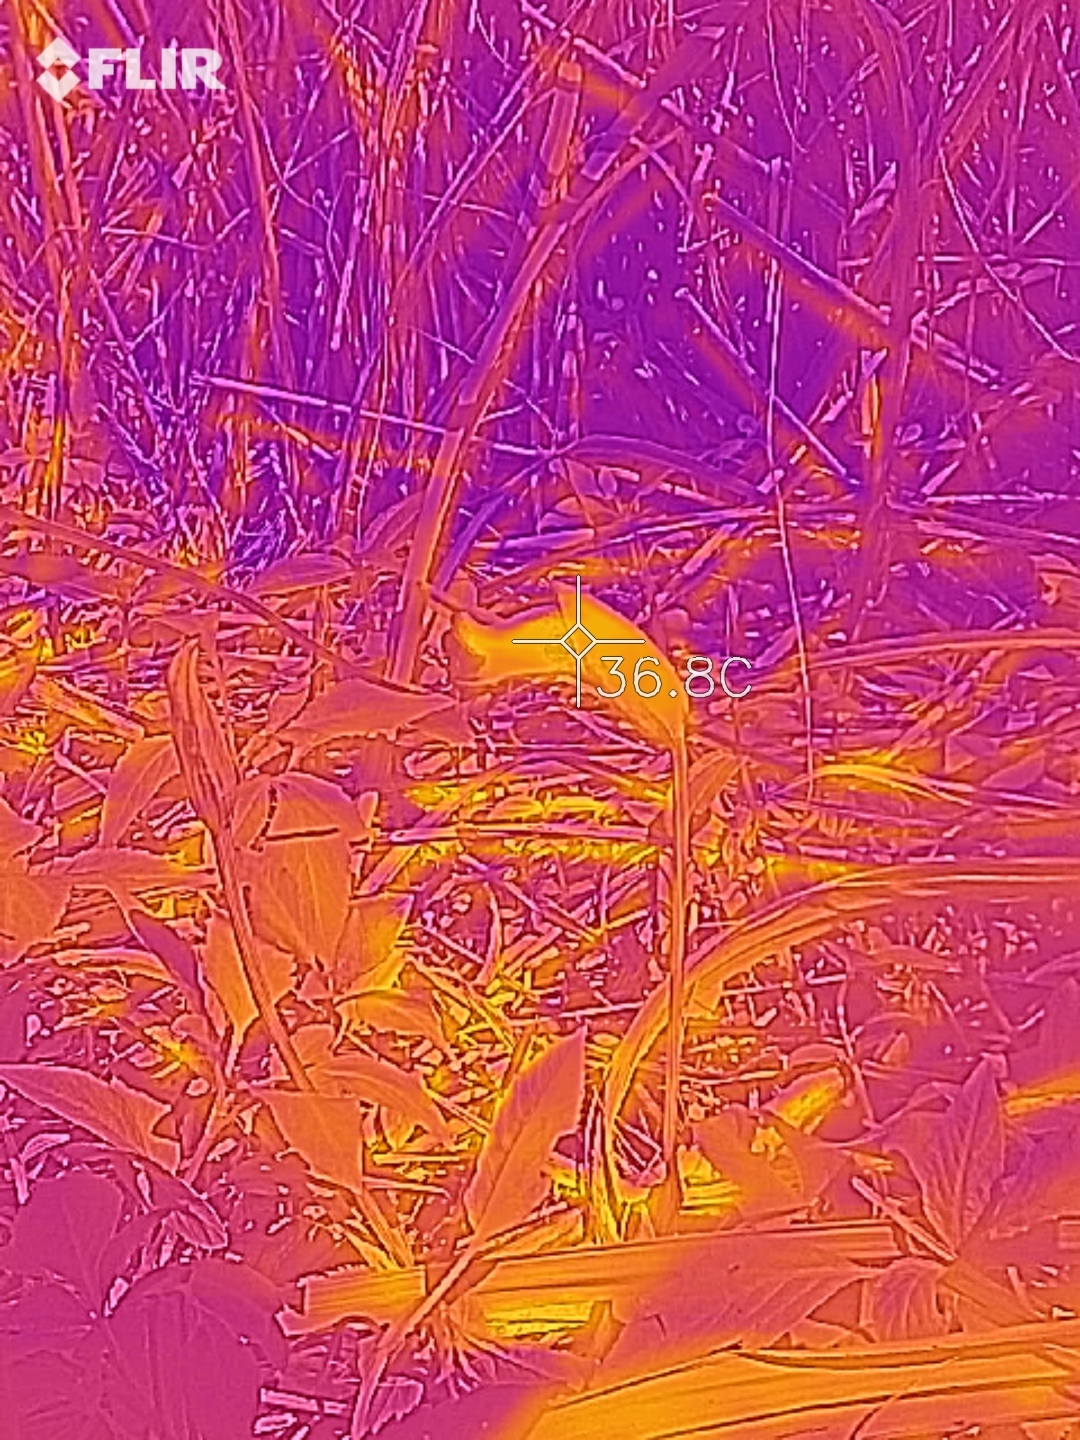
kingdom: Plantae
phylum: Tracheophyta
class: Magnoliopsida
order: Lamiales
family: Orobanchaceae
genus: Aeginetia
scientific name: Aeginetia indica
